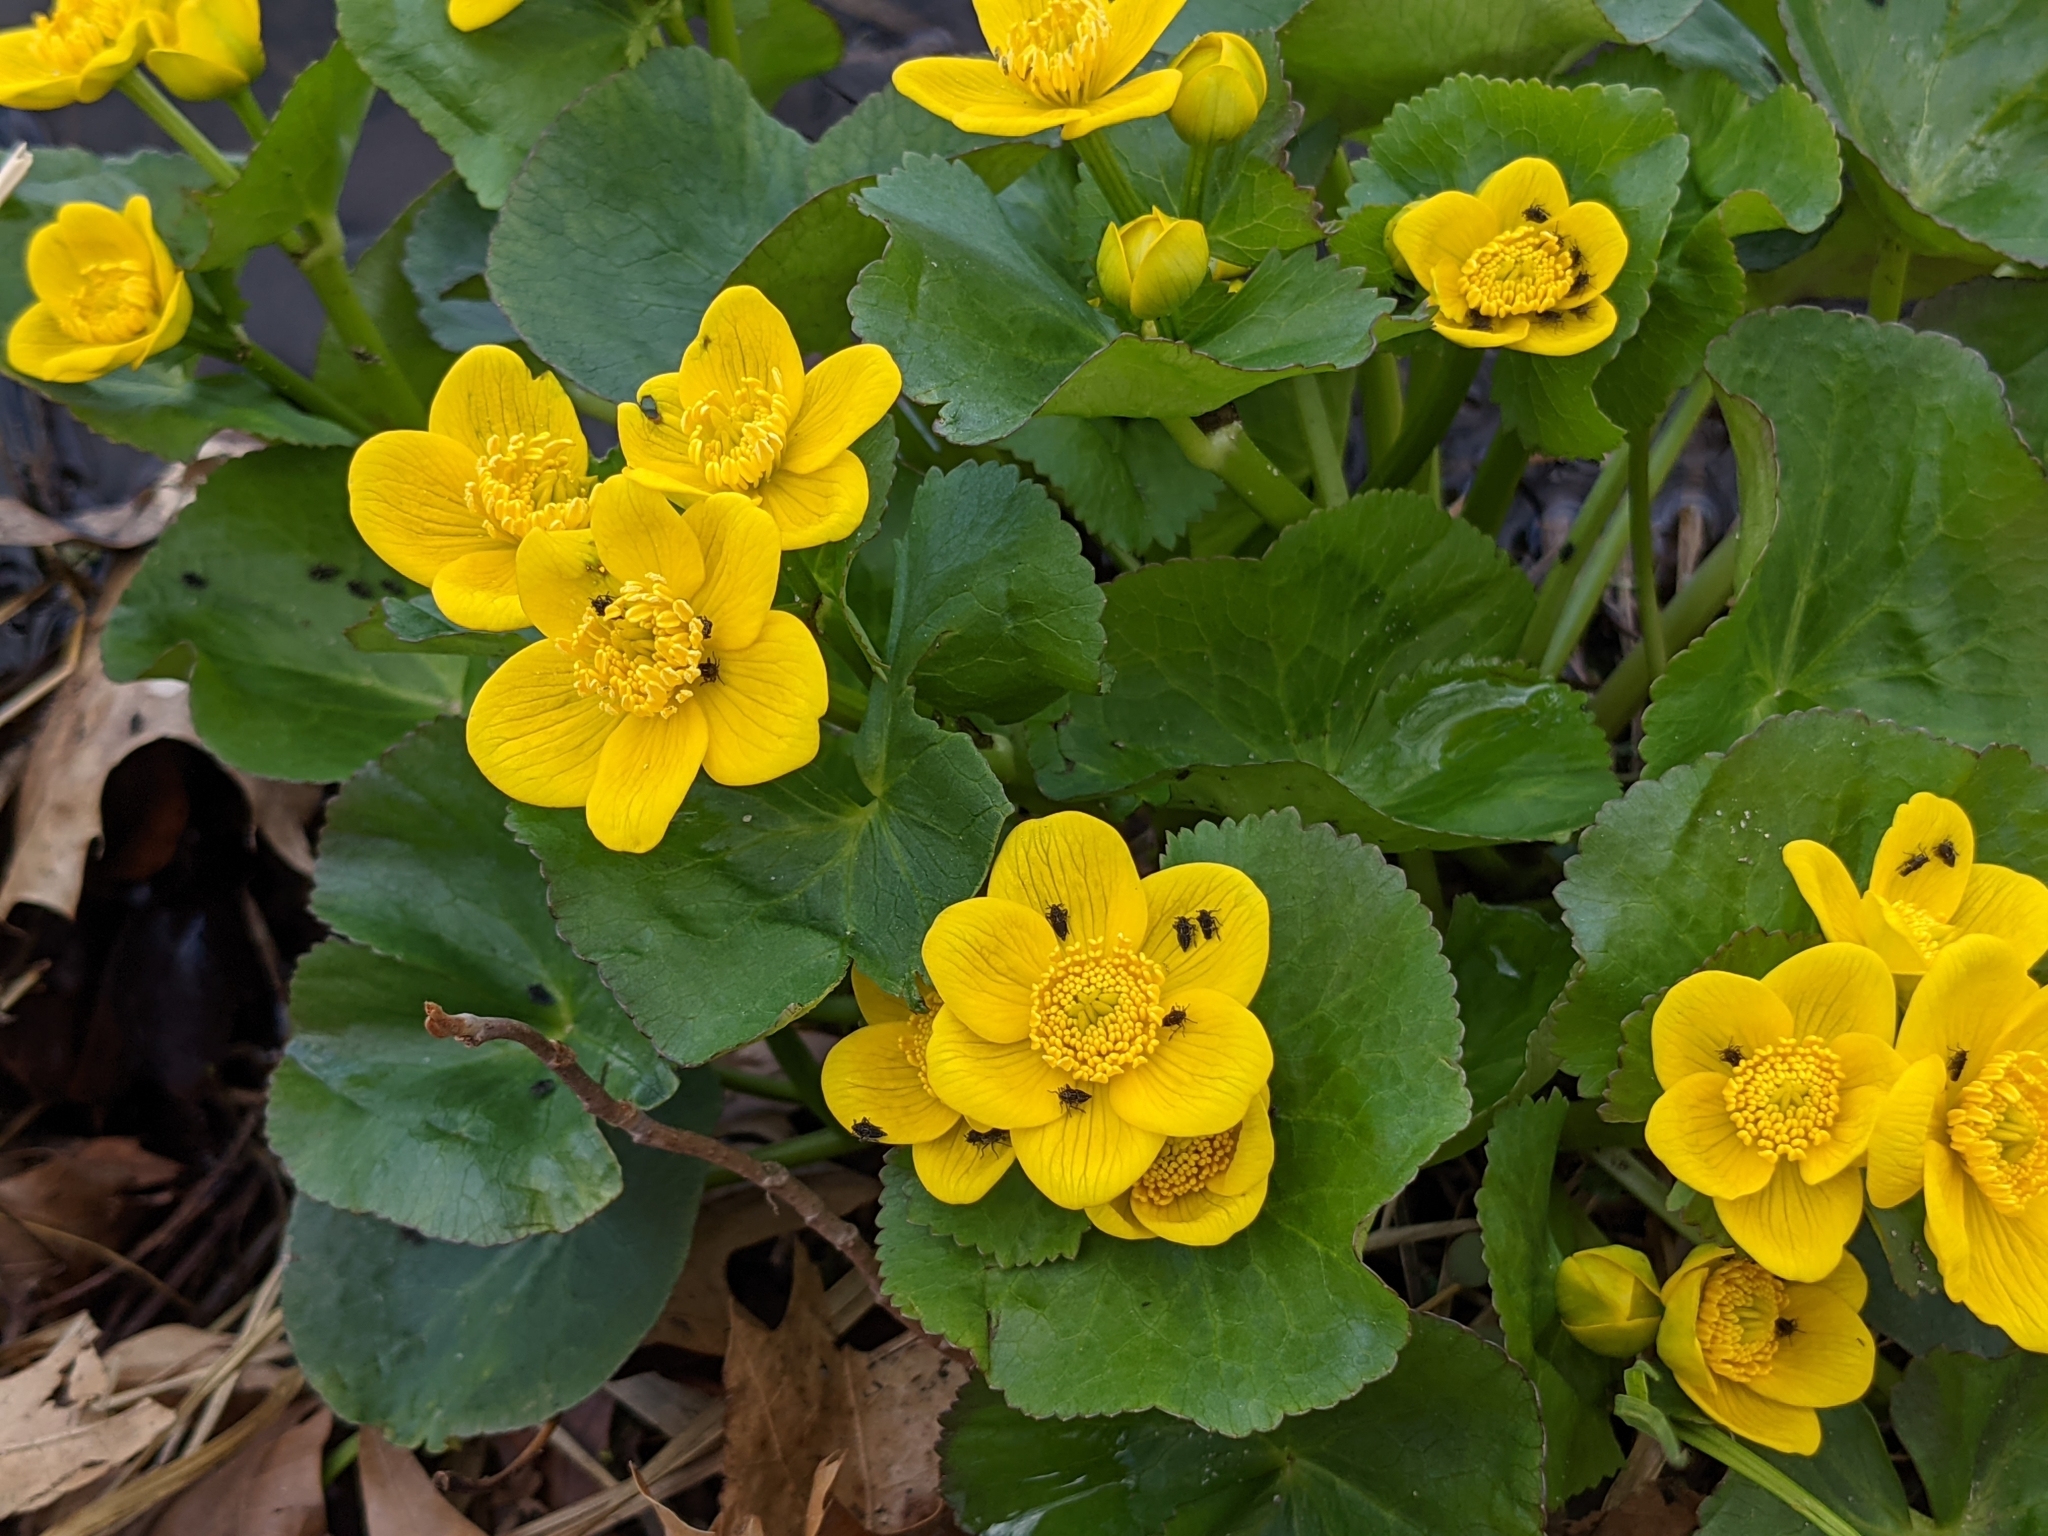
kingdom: Plantae
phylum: Tracheophyta
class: Magnoliopsida
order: Ranunculales
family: Ranunculaceae
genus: Caltha
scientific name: Caltha palustris
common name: Marsh marigold
